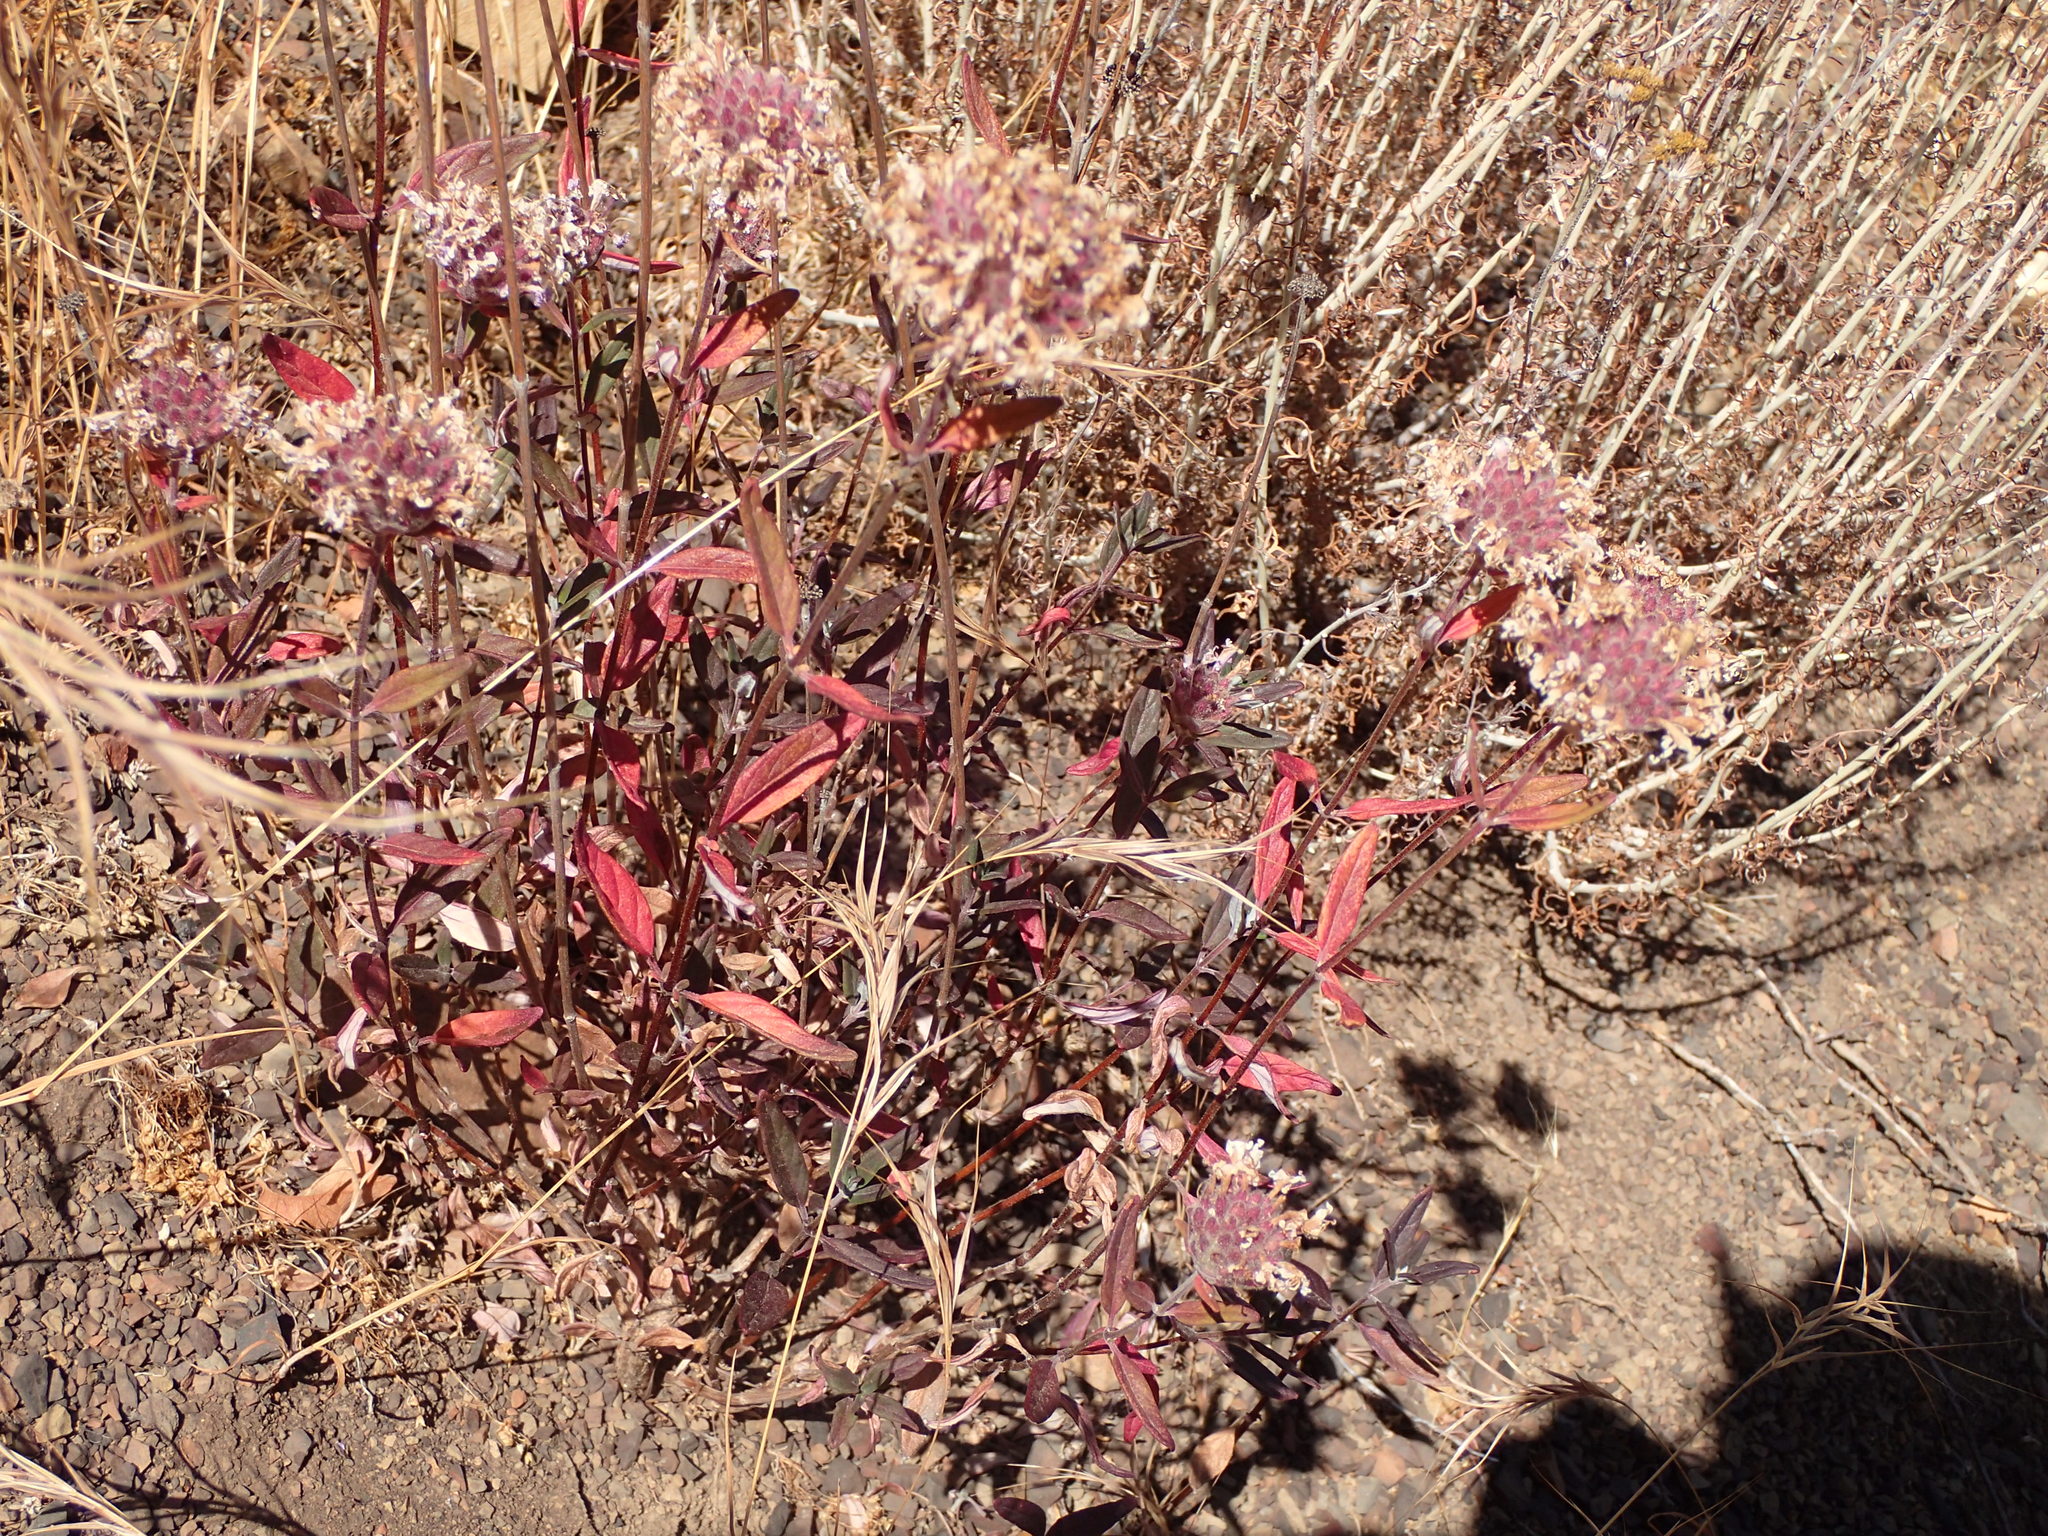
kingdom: Plantae
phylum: Tracheophyta
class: Magnoliopsida
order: Lamiales
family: Lamiaceae
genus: Monardella
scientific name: Monardella hypoleuca
